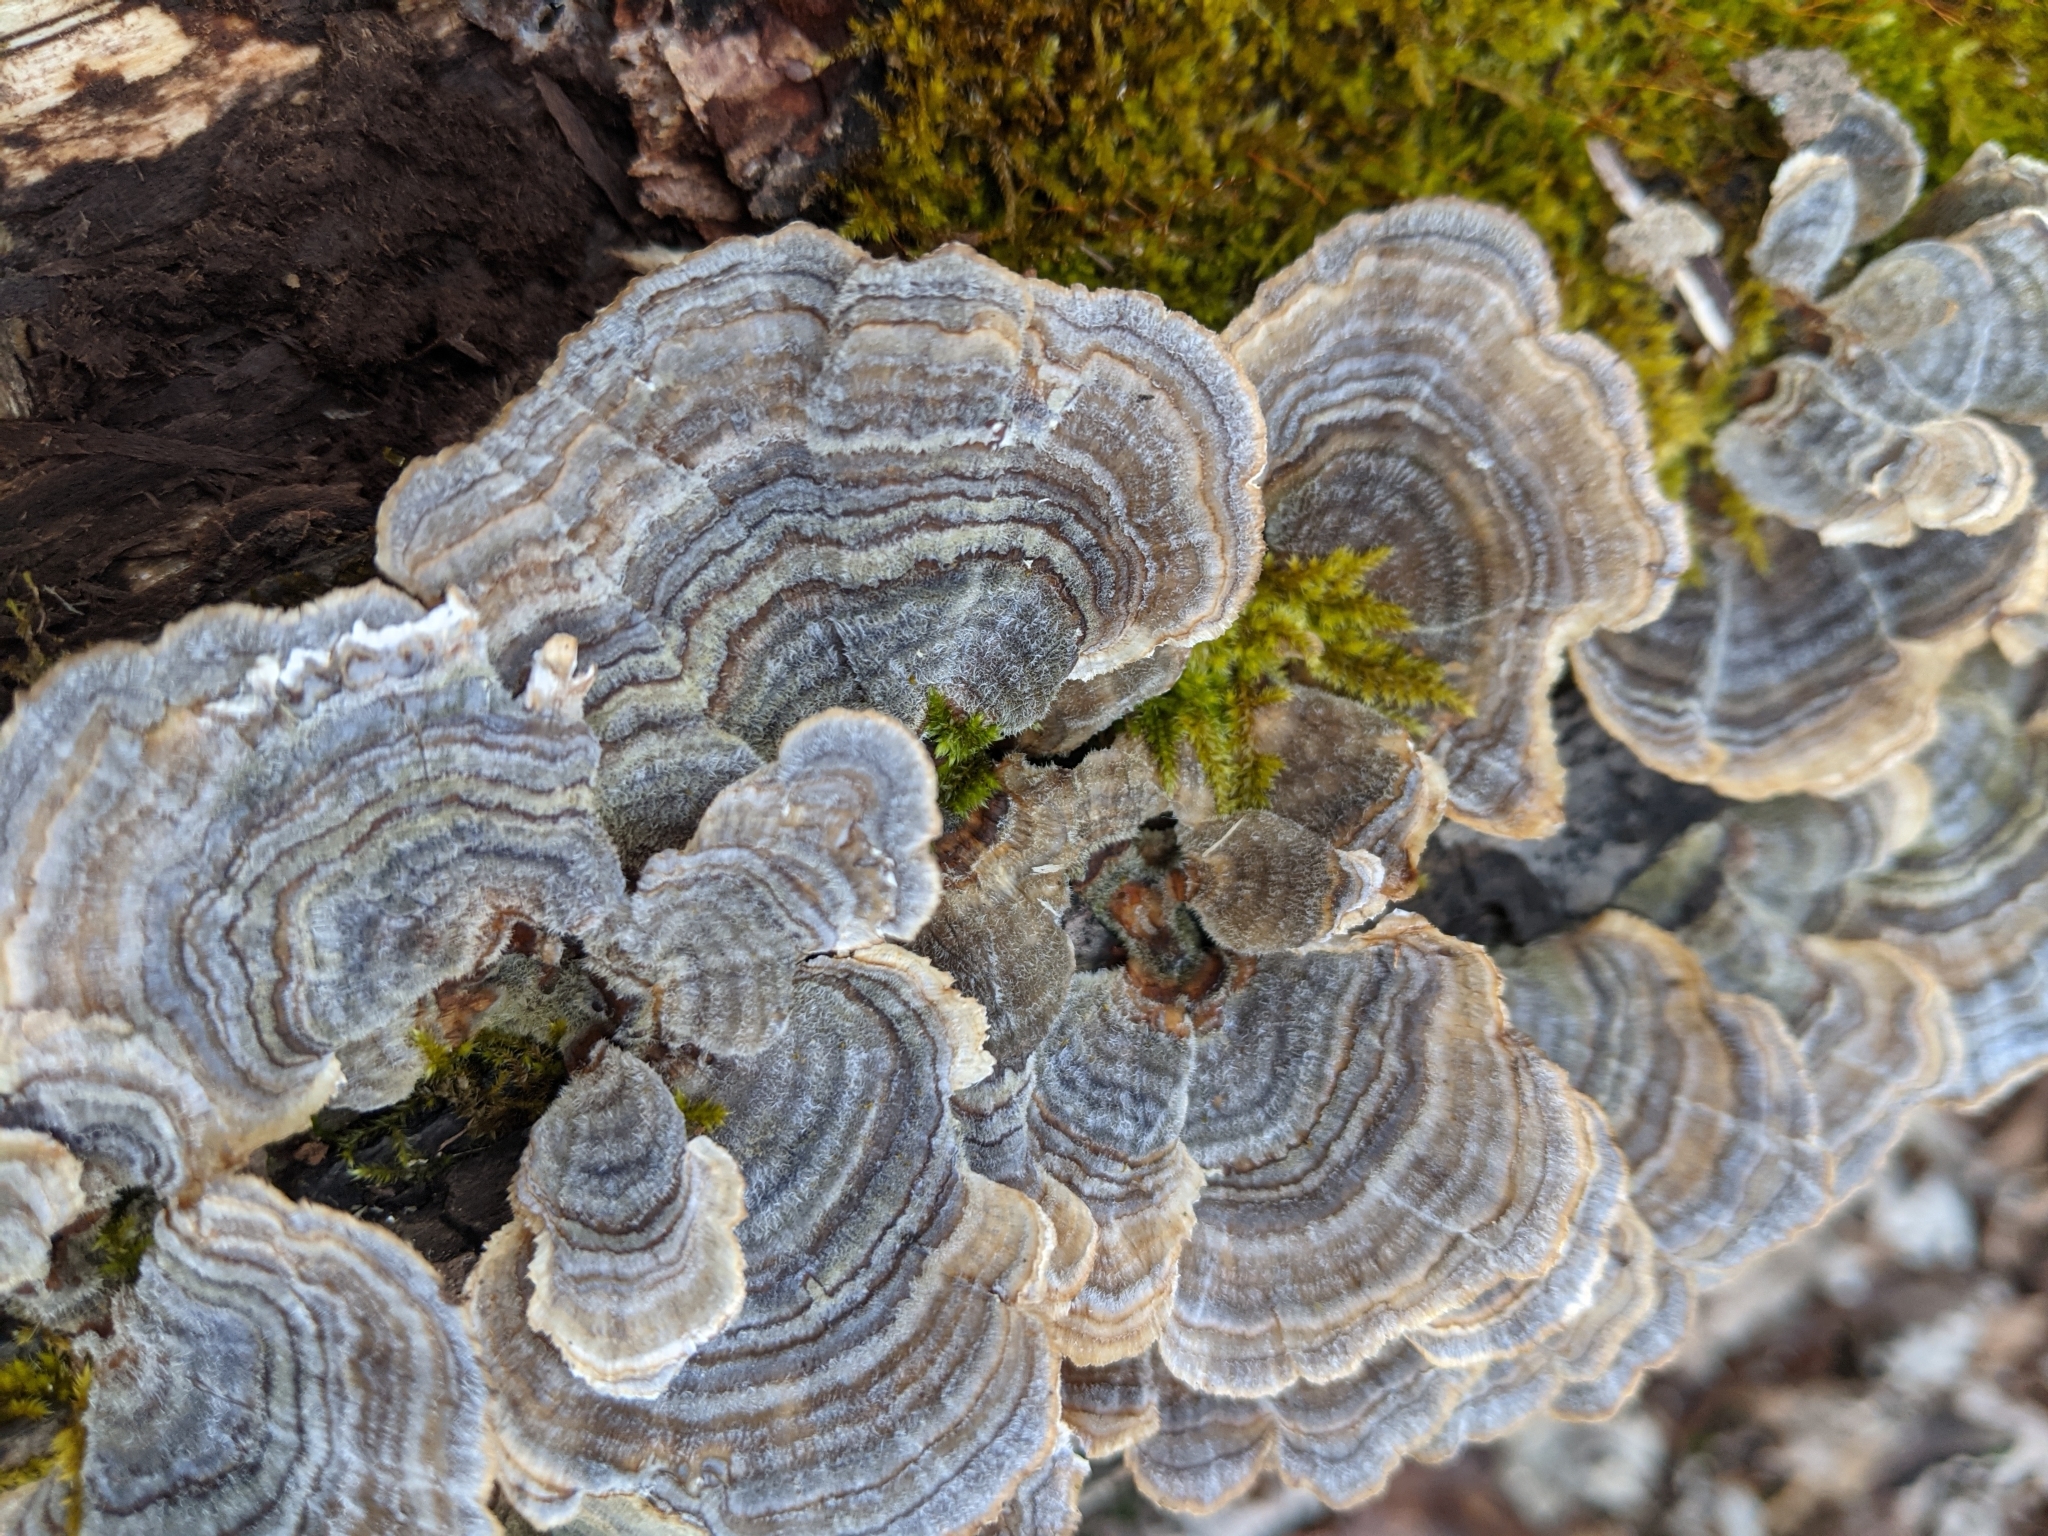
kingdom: Fungi
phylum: Basidiomycota
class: Agaricomycetes
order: Polyporales
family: Polyporaceae
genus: Trametes
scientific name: Trametes versicolor
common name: Turkeytail
